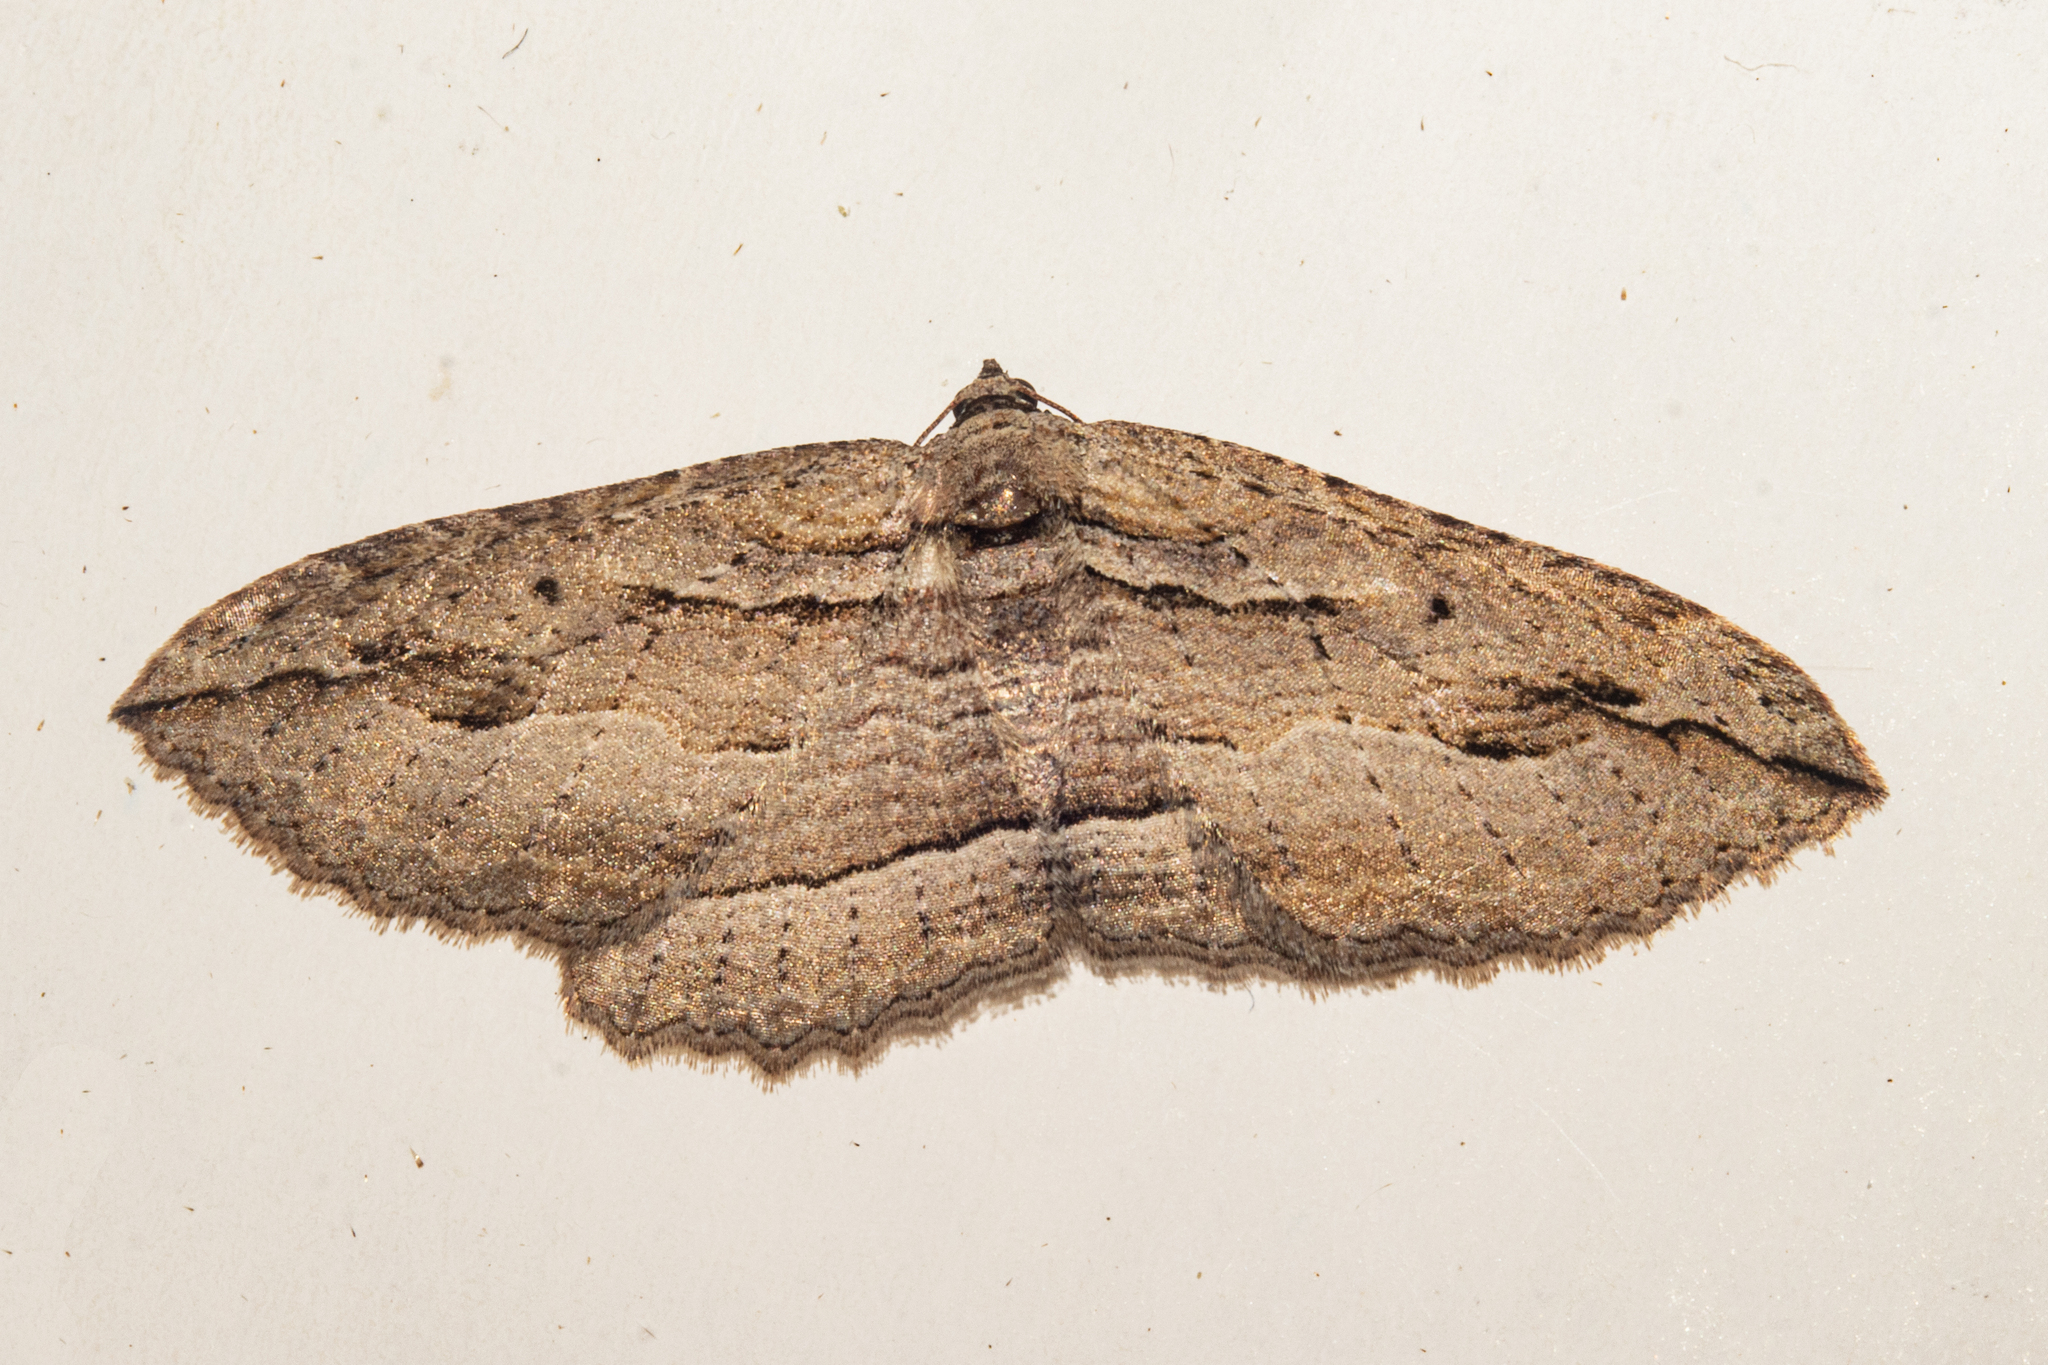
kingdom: Animalia
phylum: Arthropoda
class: Insecta
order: Lepidoptera
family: Geometridae
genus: Austrocidaria
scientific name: Austrocidaria gobiata
